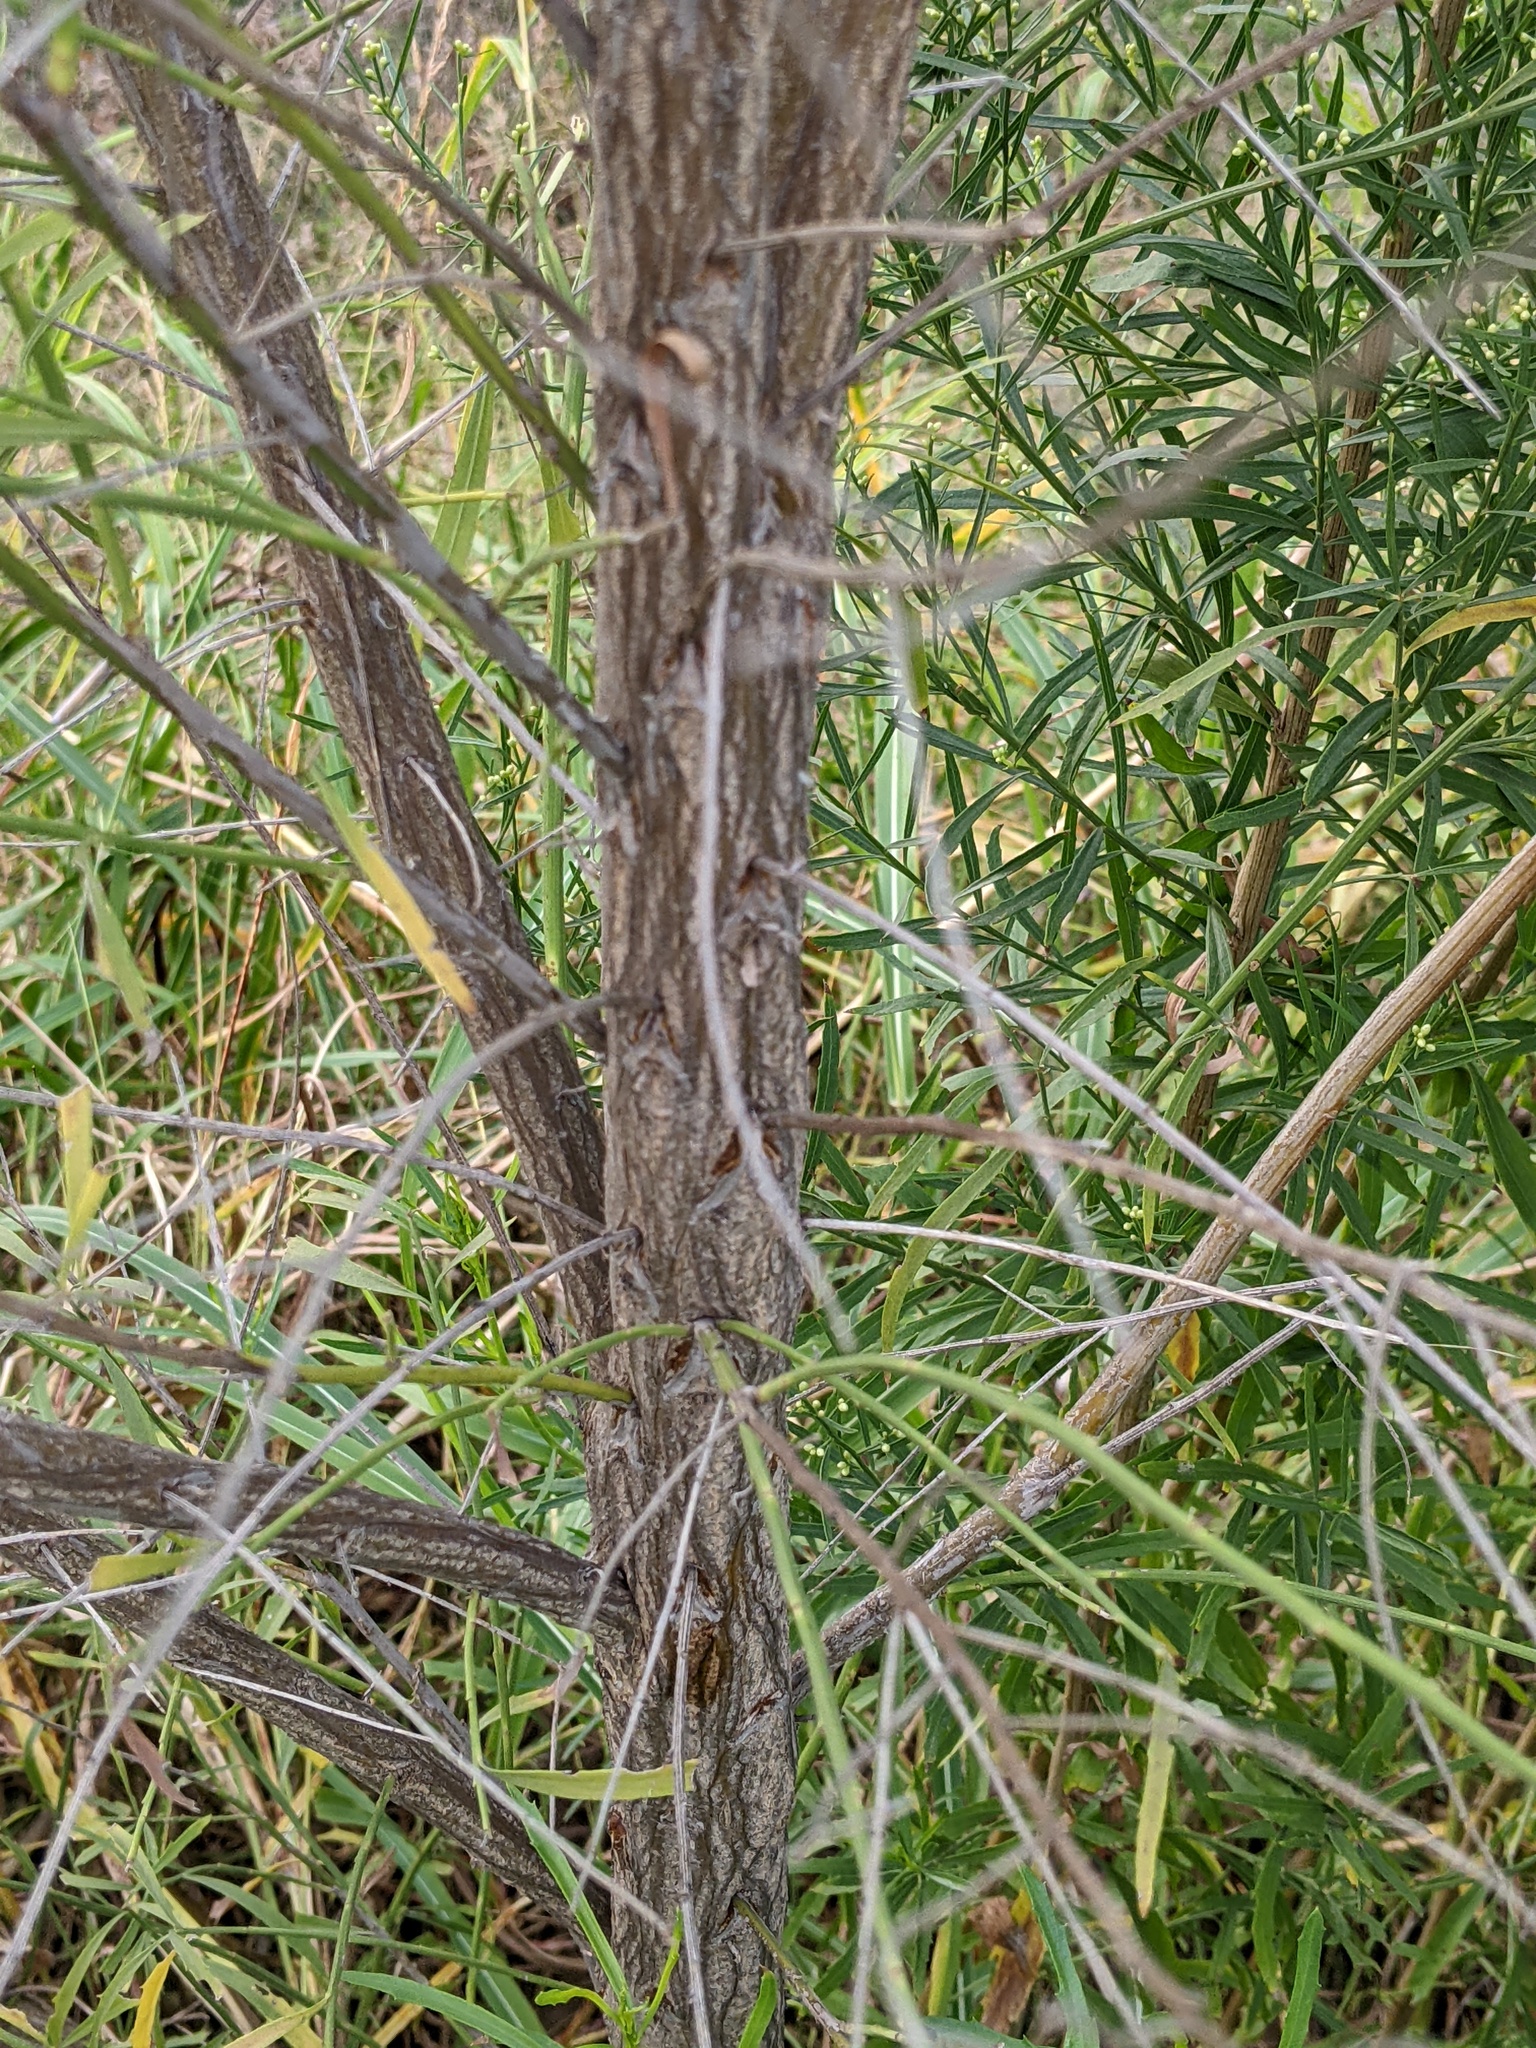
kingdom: Plantae
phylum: Tracheophyta
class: Magnoliopsida
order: Asterales
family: Asteraceae
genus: Baccharis
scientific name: Baccharis neglecta
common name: Roosevelt-weed
